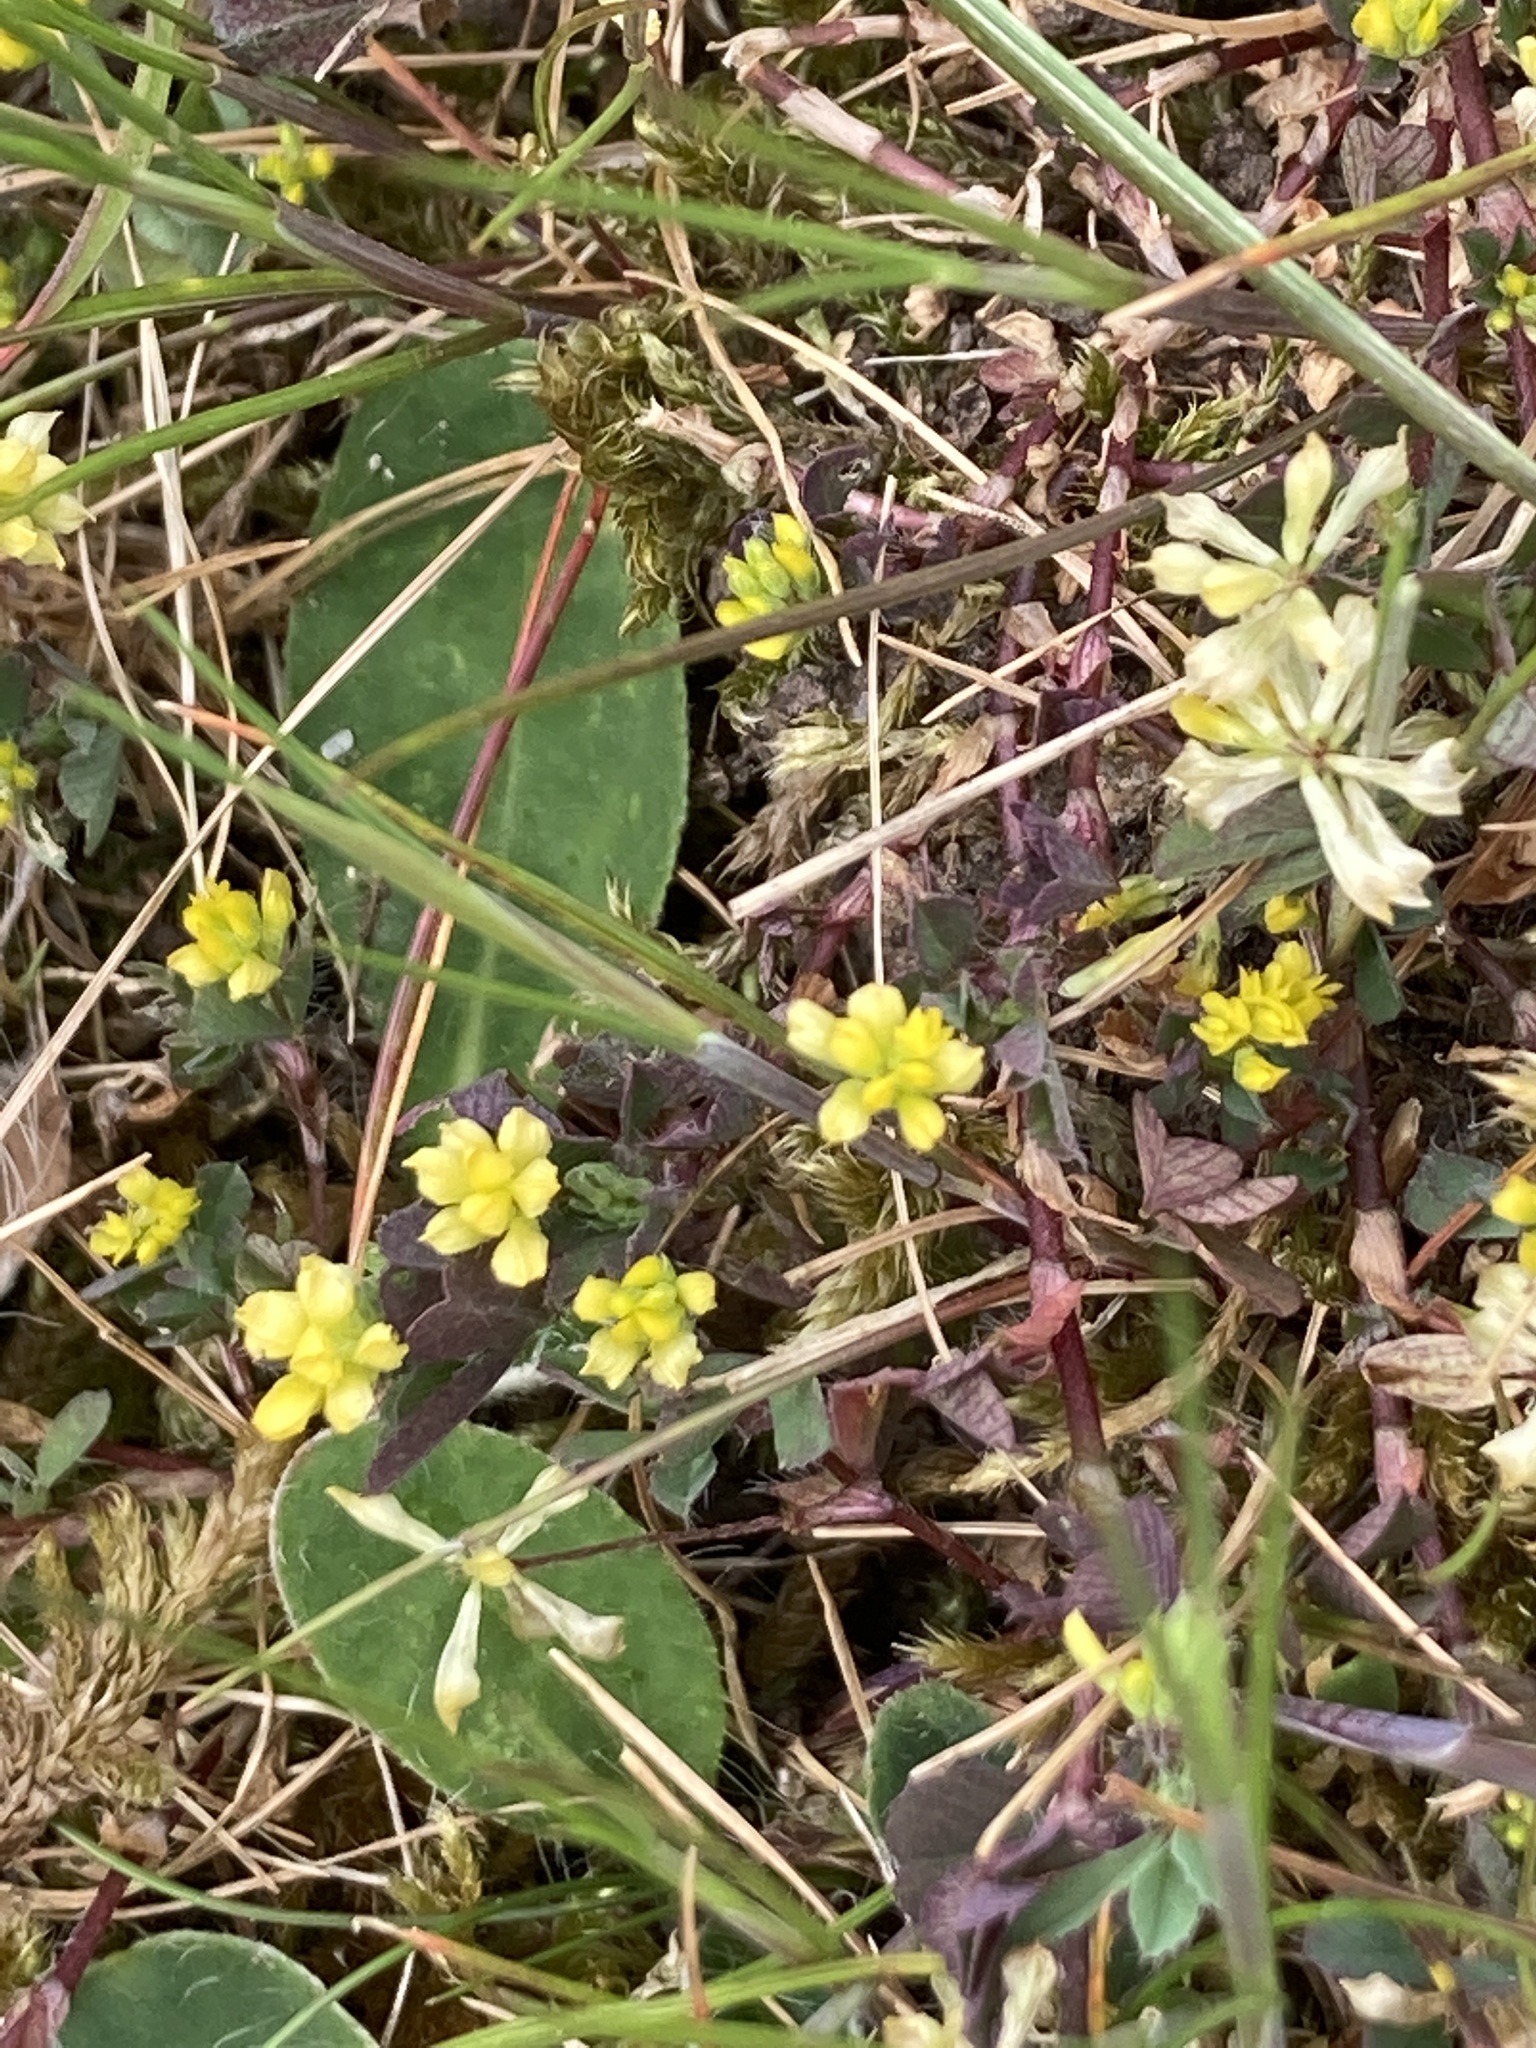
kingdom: Plantae
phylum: Tracheophyta
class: Magnoliopsida
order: Fabales
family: Fabaceae
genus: Trifolium
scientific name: Trifolium dubium
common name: Suckling clover
